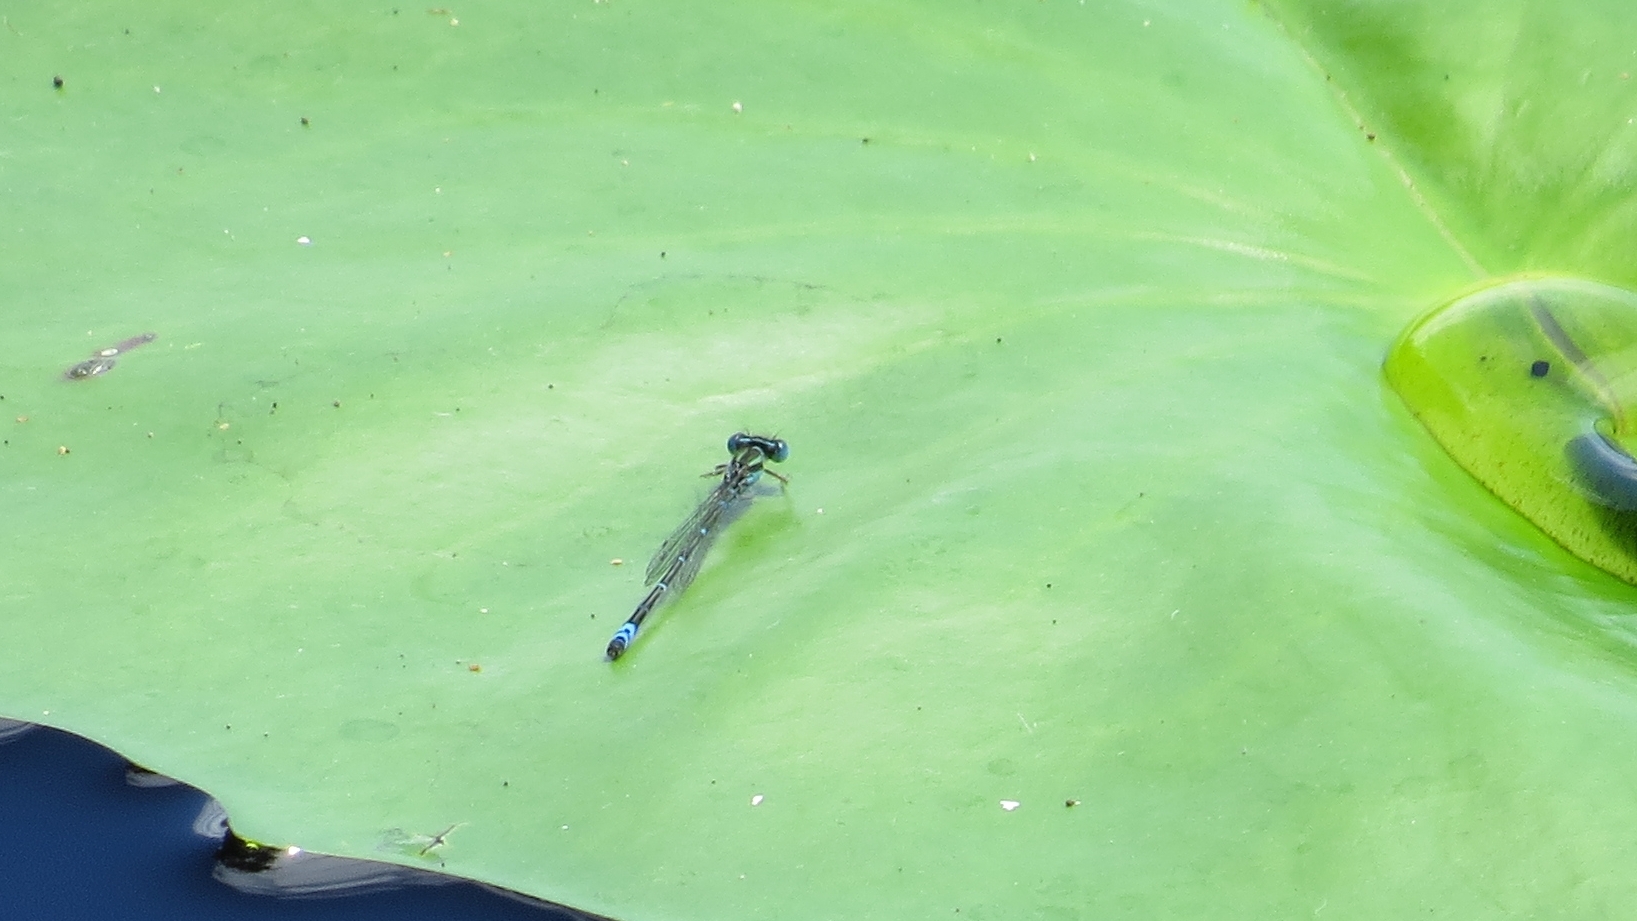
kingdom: Animalia
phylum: Arthropoda
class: Insecta
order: Odonata
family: Coenagrionidae
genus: Austroagrion
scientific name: Austroagrion watsoni
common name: Eastern billabongfly
